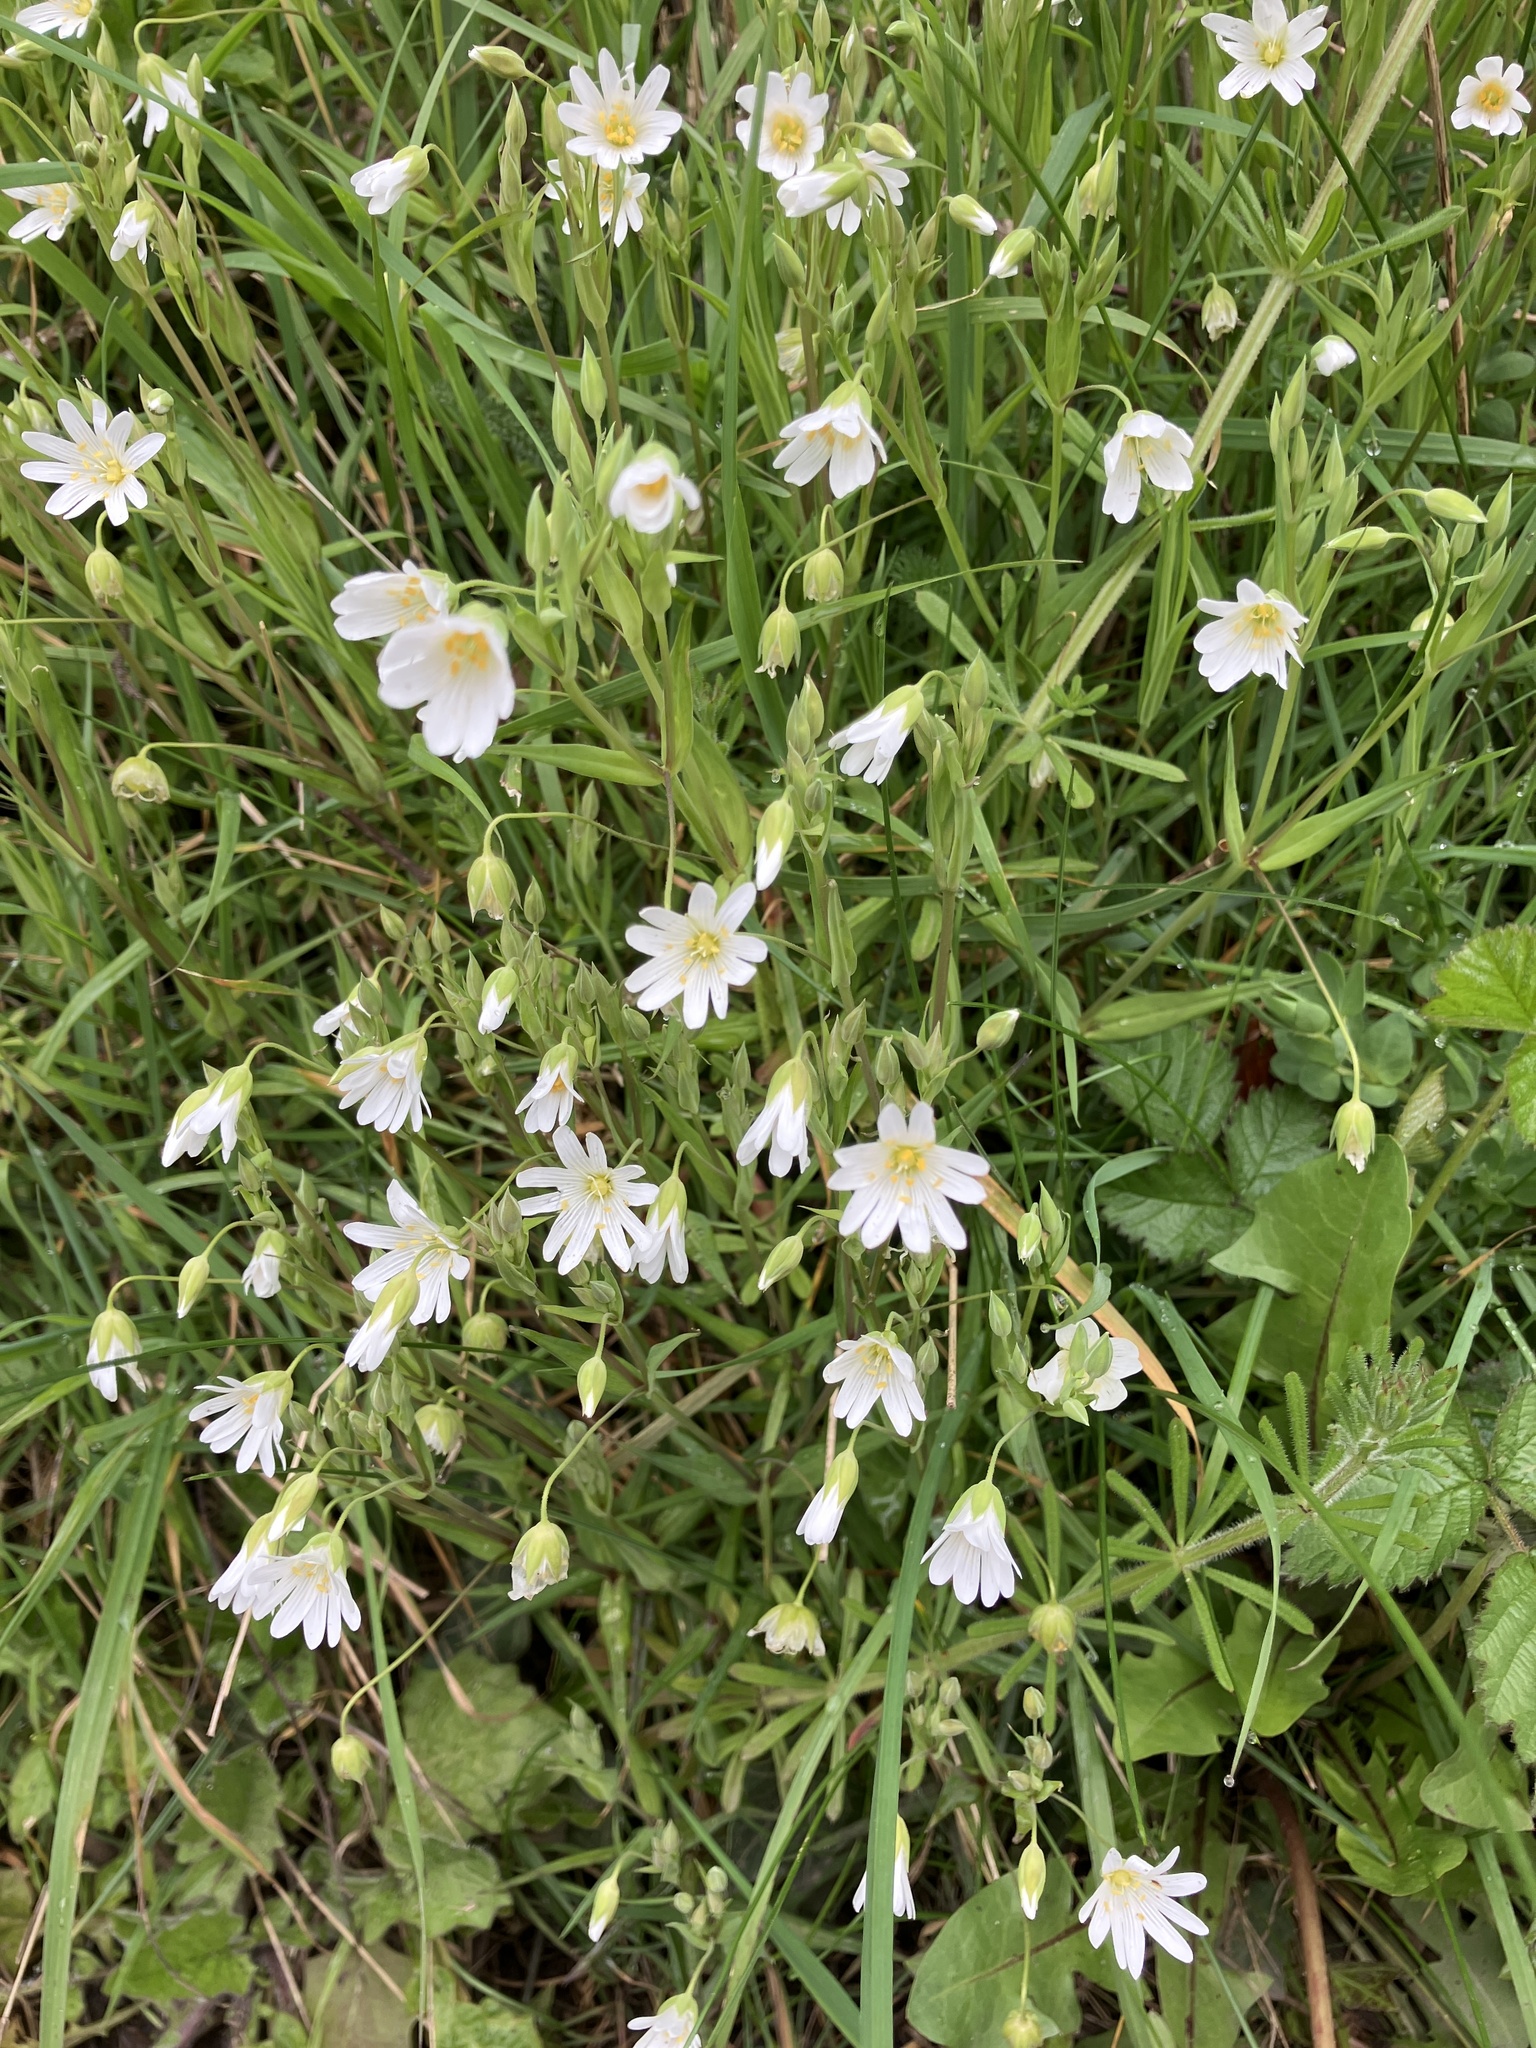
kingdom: Plantae
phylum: Tracheophyta
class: Magnoliopsida
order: Caryophyllales
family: Caryophyllaceae
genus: Rabelera
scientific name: Rabelera holostea
